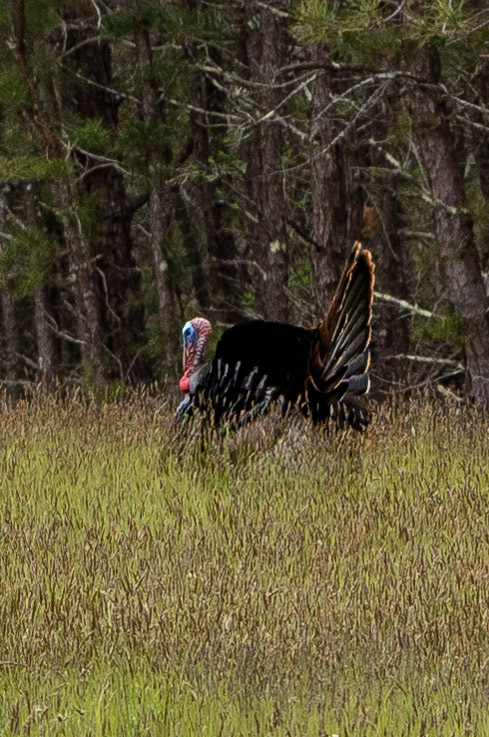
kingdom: Animalia
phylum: Chordata
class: Aves
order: Galliformes
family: Phasianidae
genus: Meleagris
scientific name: Meleagris gallopavo
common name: Wild turkey
